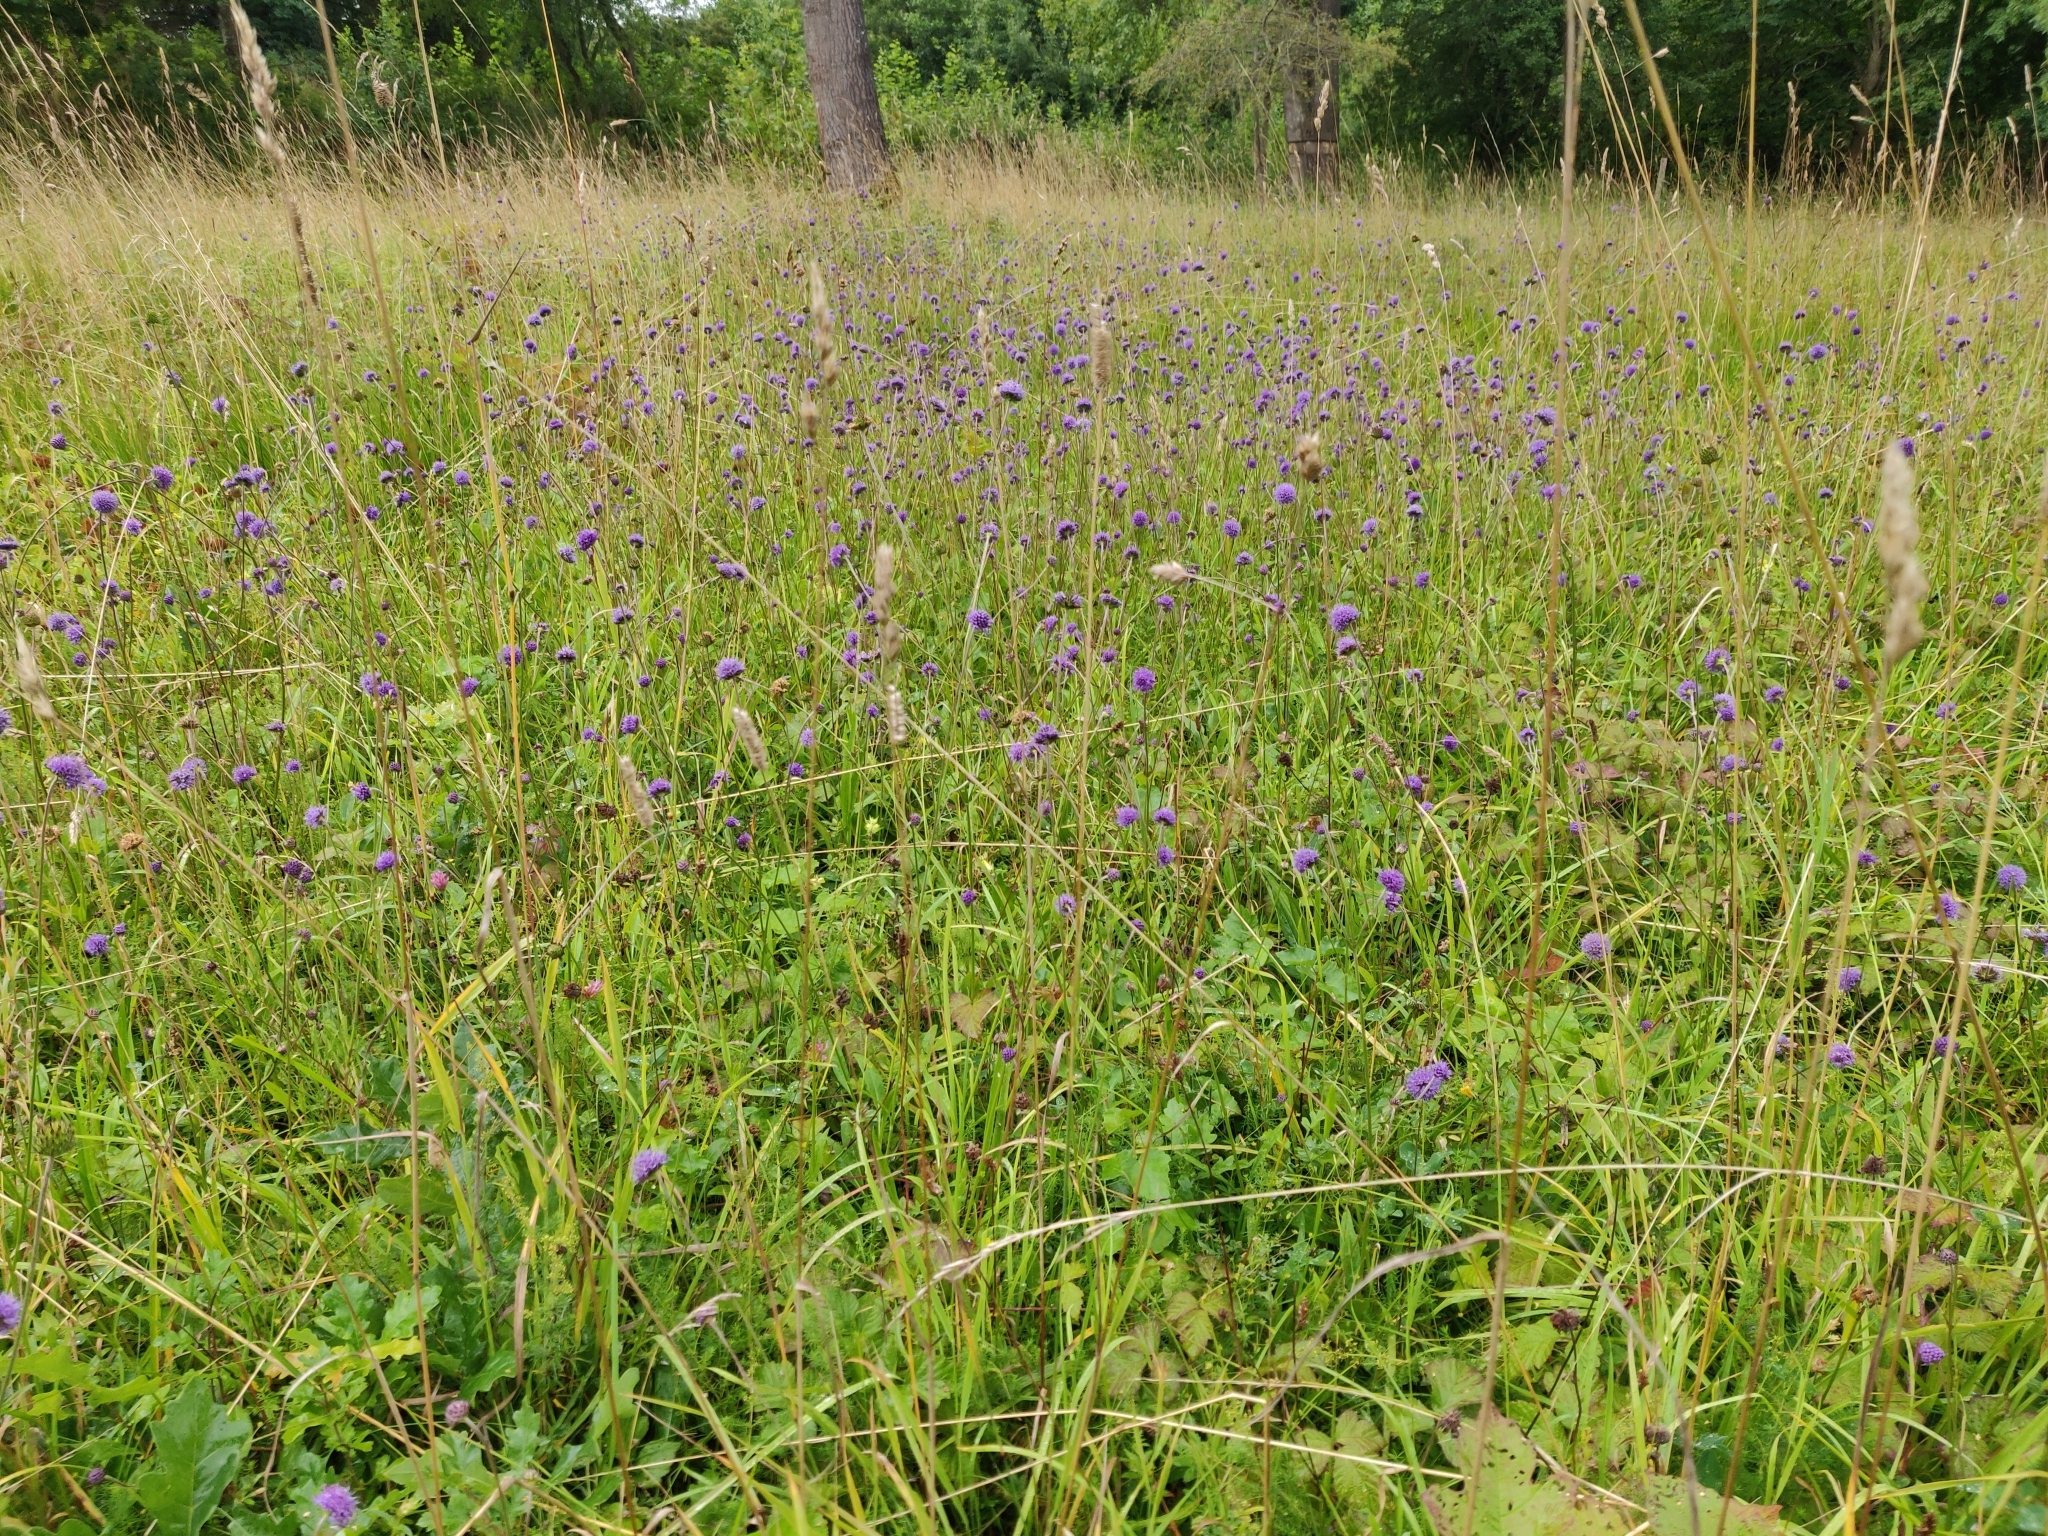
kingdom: Plantae
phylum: Tracheophyta
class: Magnoliopsida
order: Dipsacales
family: Caprifoliaceae
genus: Succisa
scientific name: Succisa pratensis
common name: Devil's-bit
